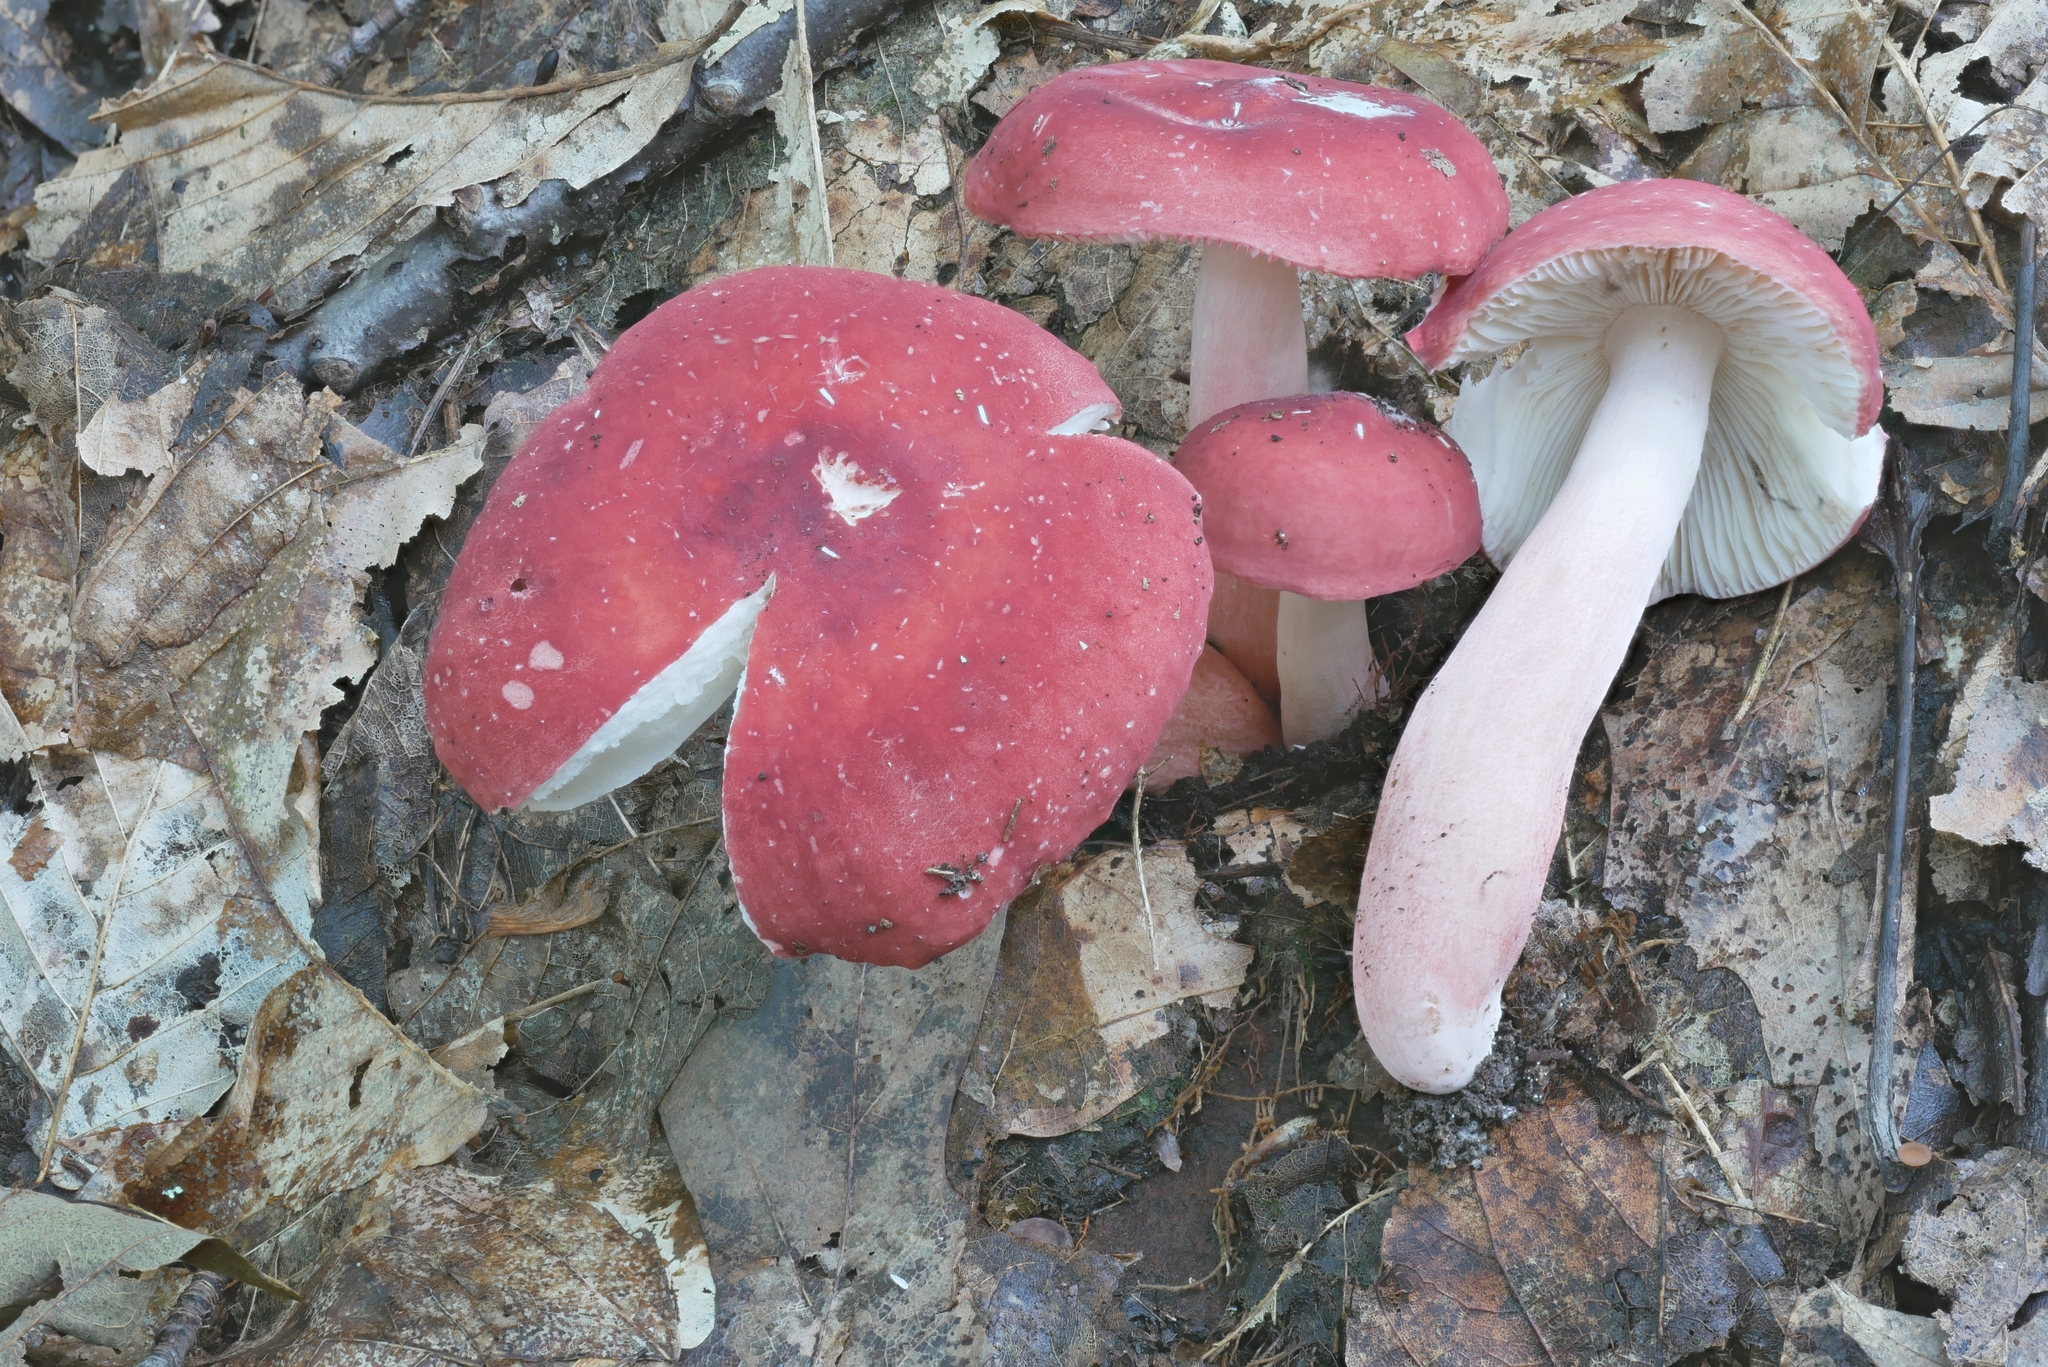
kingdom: Fungi
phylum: Basidiomycota
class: Agaricomycetes
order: Russulales
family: Russulaceae
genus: Russula
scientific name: Russula rubellipes
